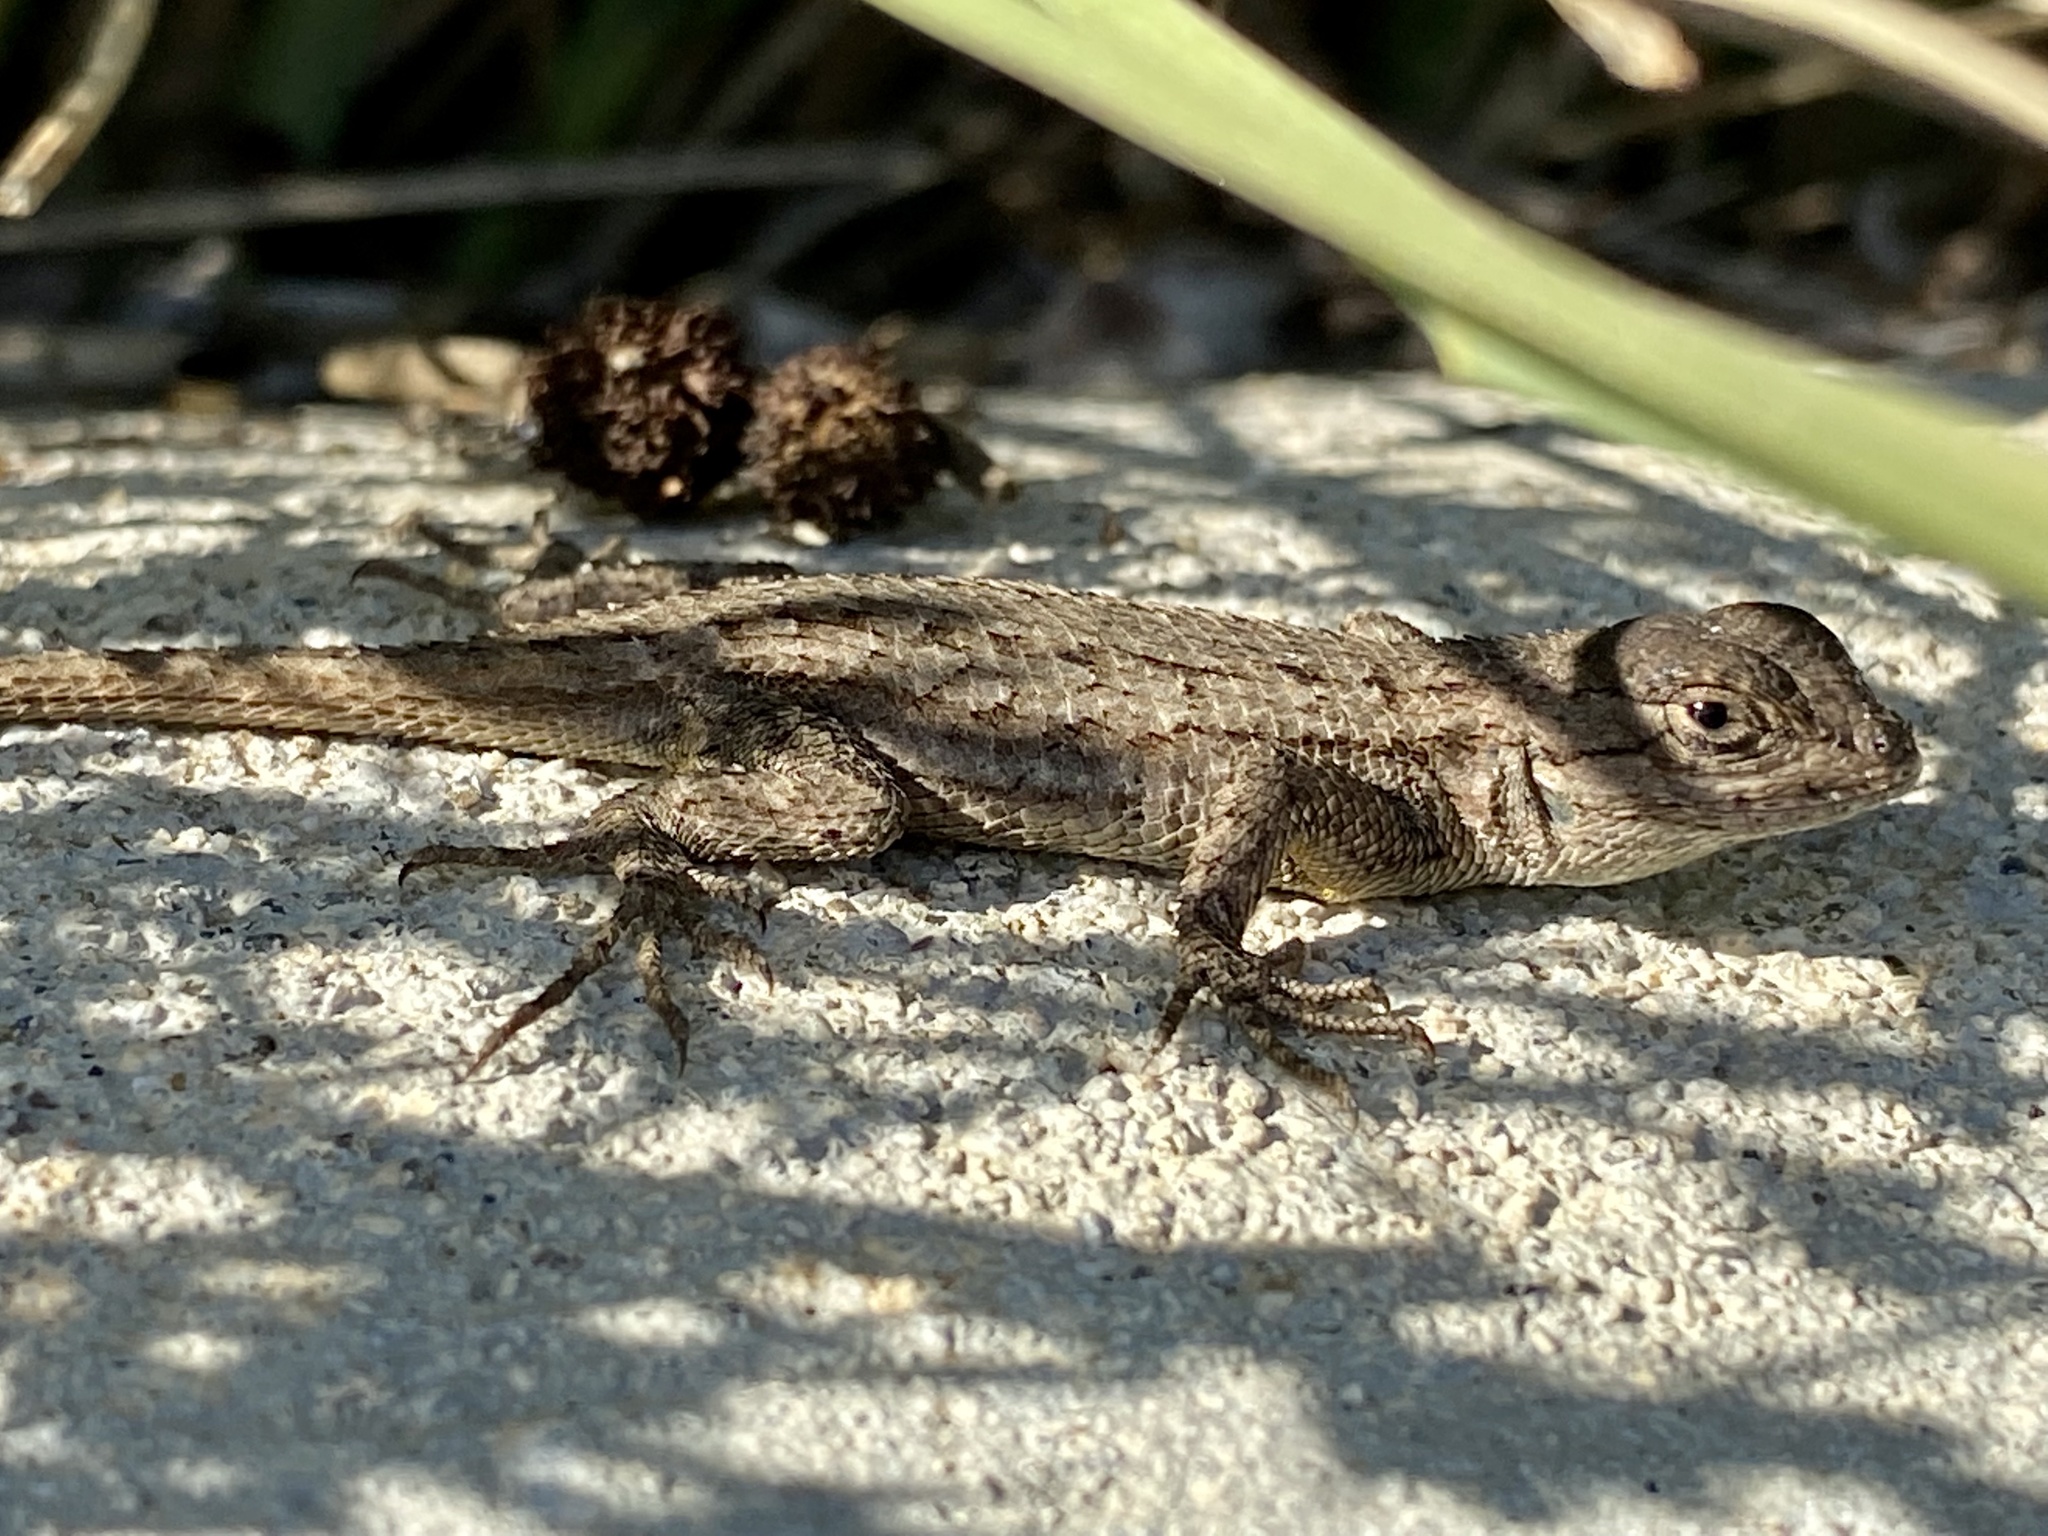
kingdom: Animalia
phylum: Chordata
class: Squamata
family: Phrynosomatidae
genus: Sceloporus
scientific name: Sceloporus occidentalis
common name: Western fence lizard
